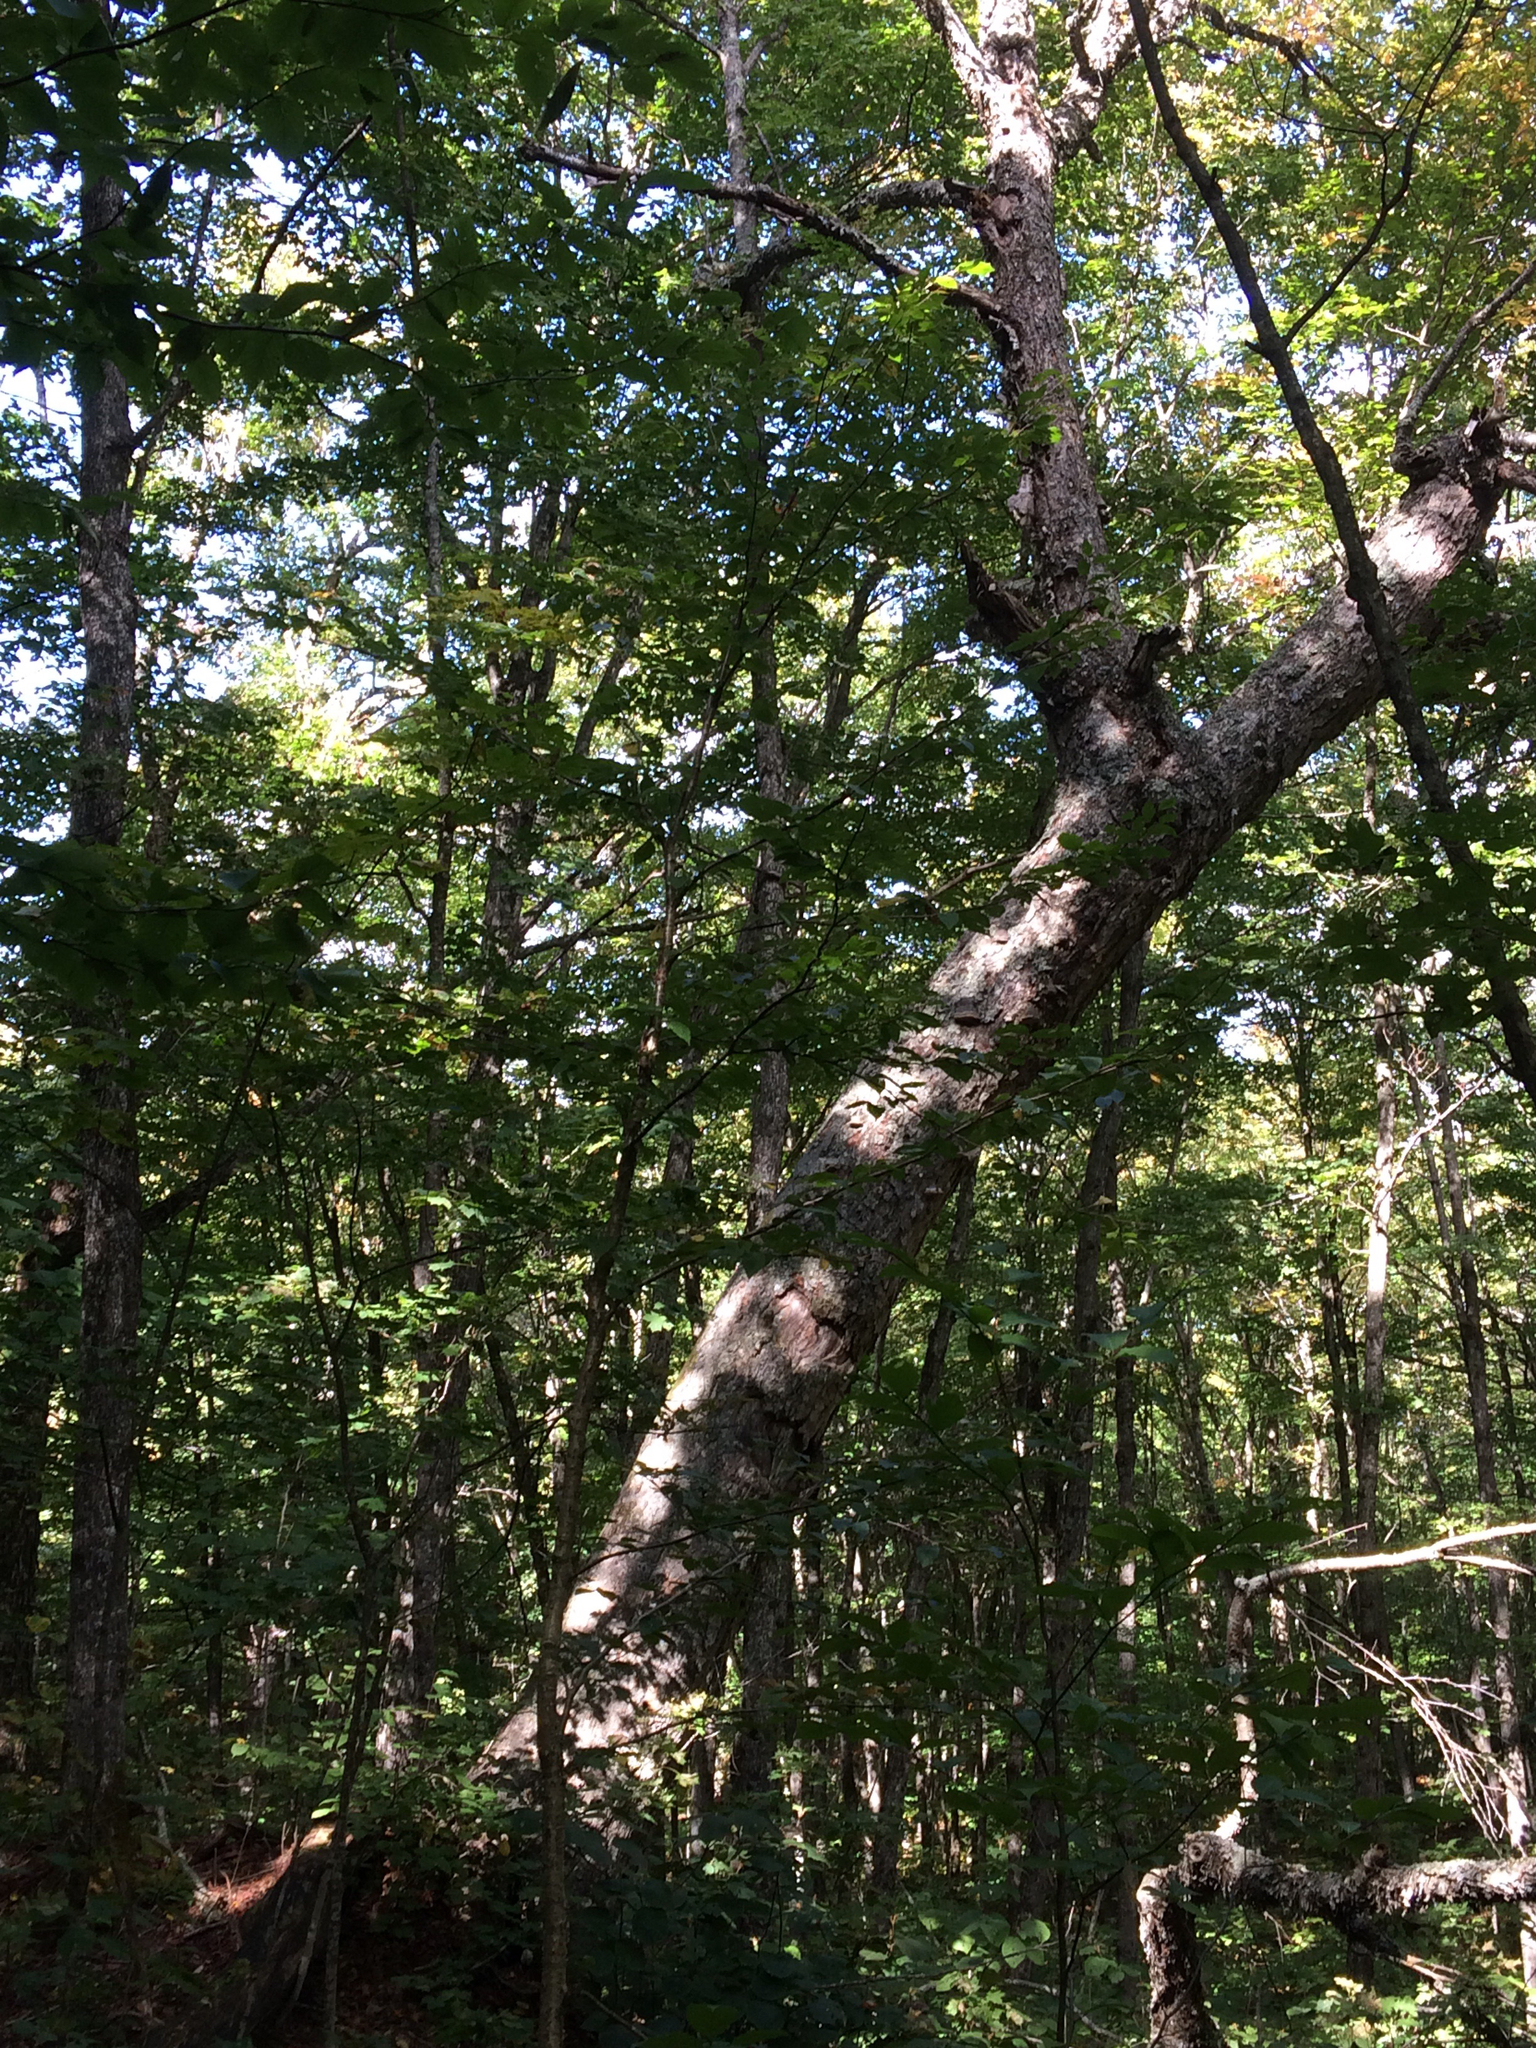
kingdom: Plantae
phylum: Tracheophyta
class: Magnoliopsida
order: Fagales
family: Betulaceae
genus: Betula
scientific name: Betula alleghaniensis
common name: Yellow birch
